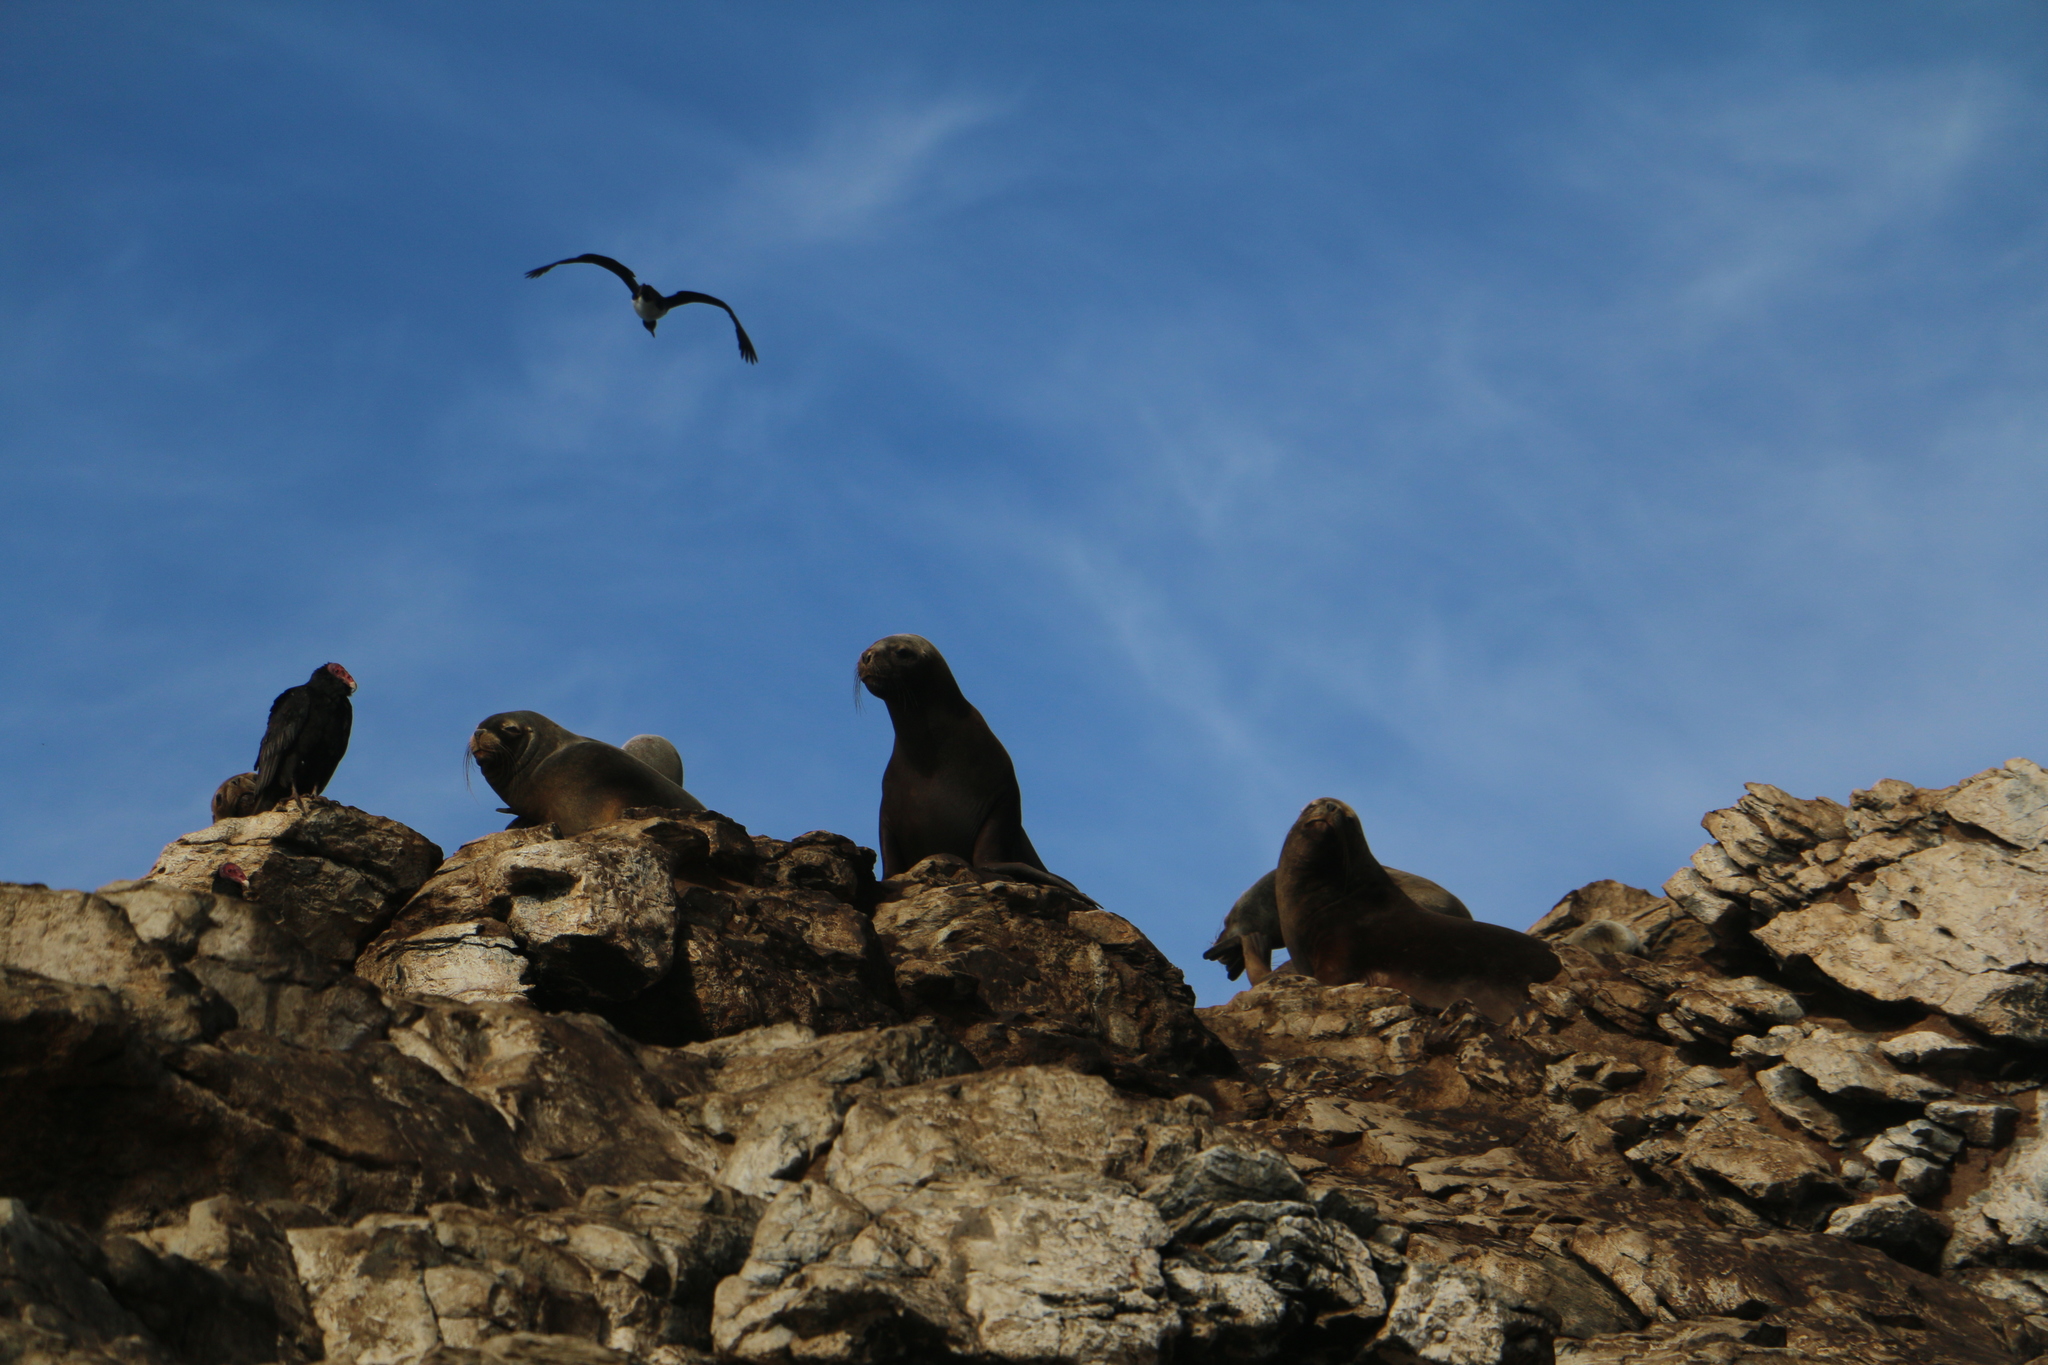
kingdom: Animalia
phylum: Chordata
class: Mammalia
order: Carnivora
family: Otariidae
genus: Otaria
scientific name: Otaria byronia
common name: South american sea lion
